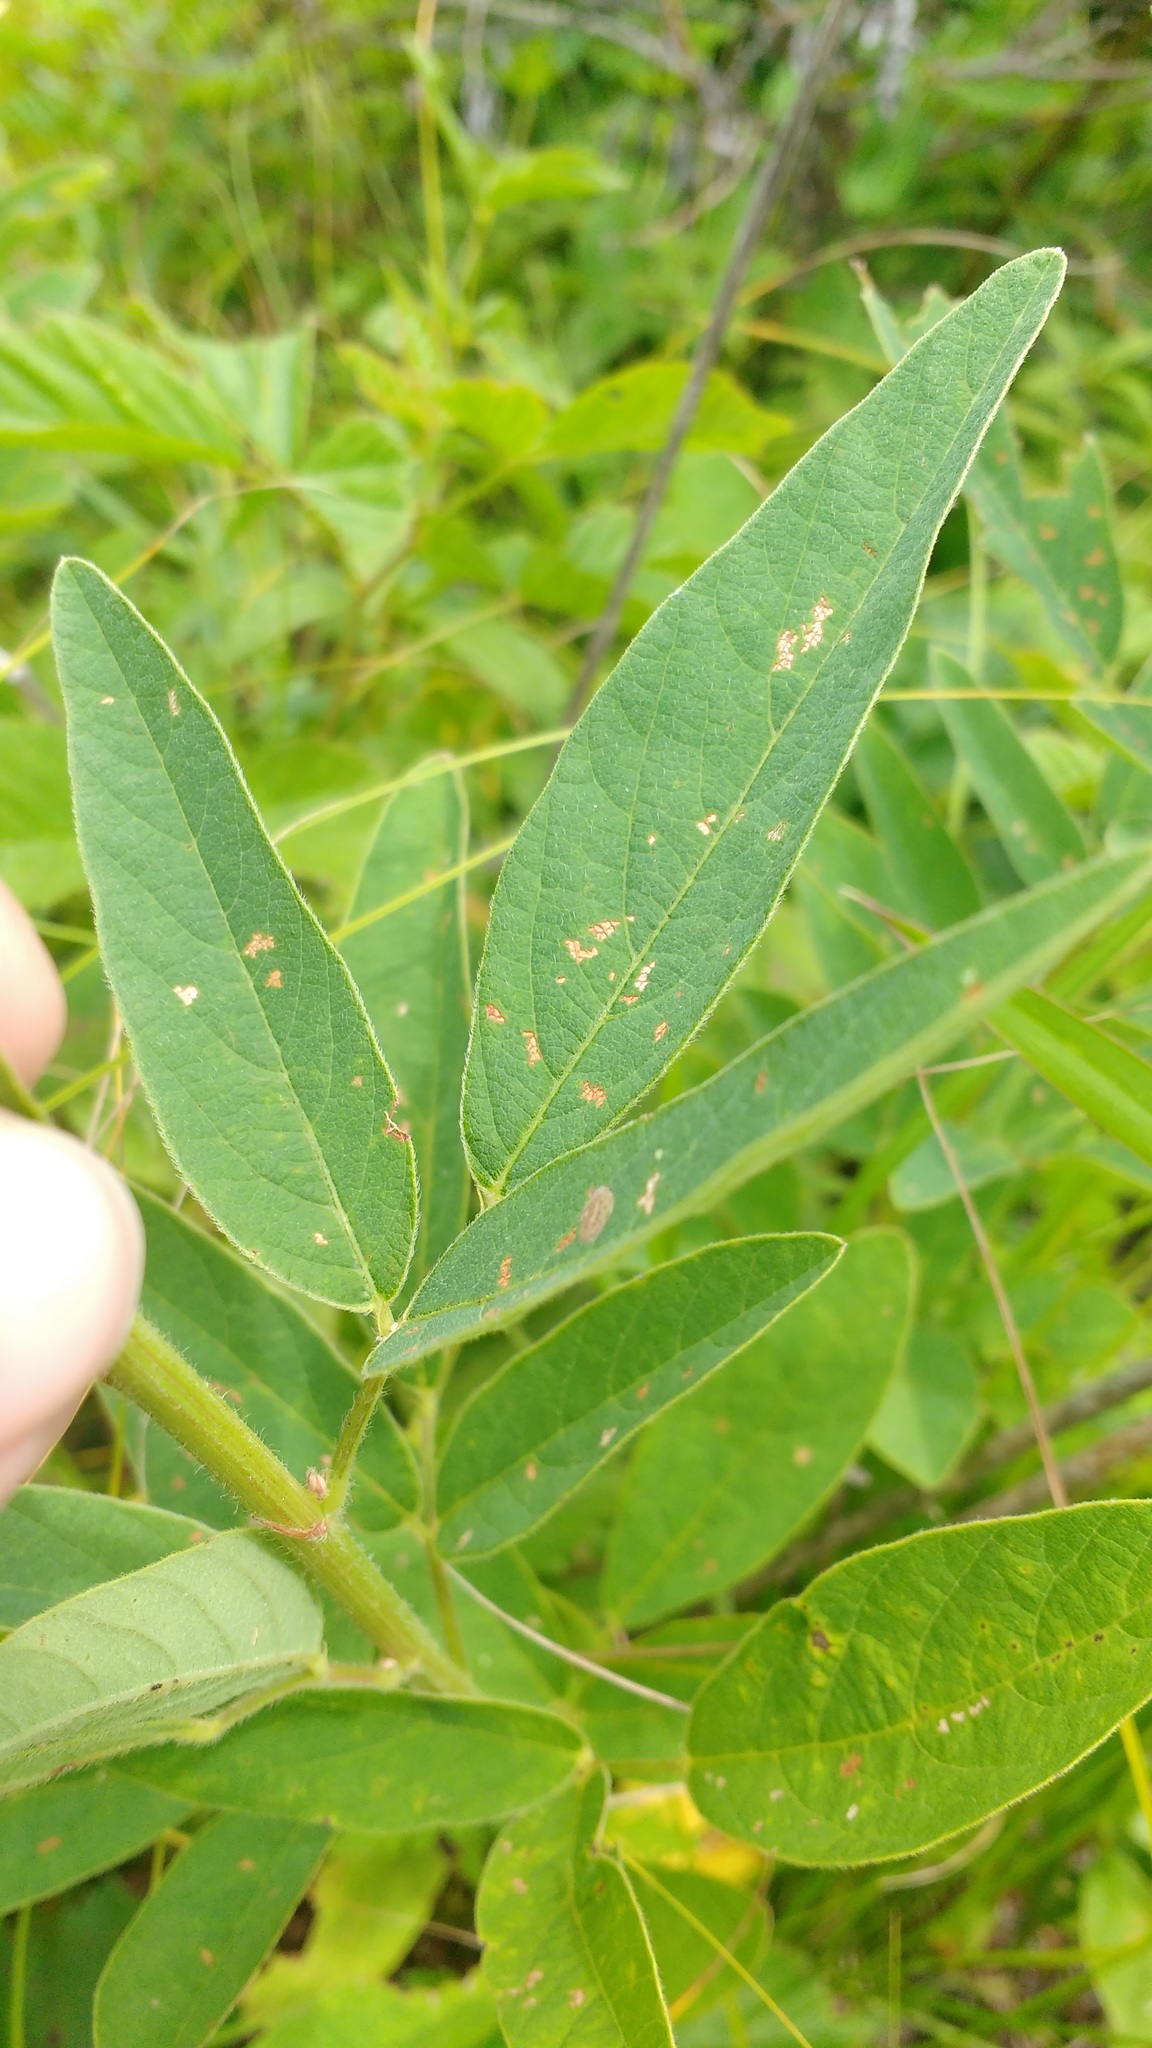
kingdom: Plantae
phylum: Tracheophyta
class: Magnoliopsida
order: Fabales
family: Fabaceae
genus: Desmodium
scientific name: Desmodium canadense
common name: Canada tick-trefoil
